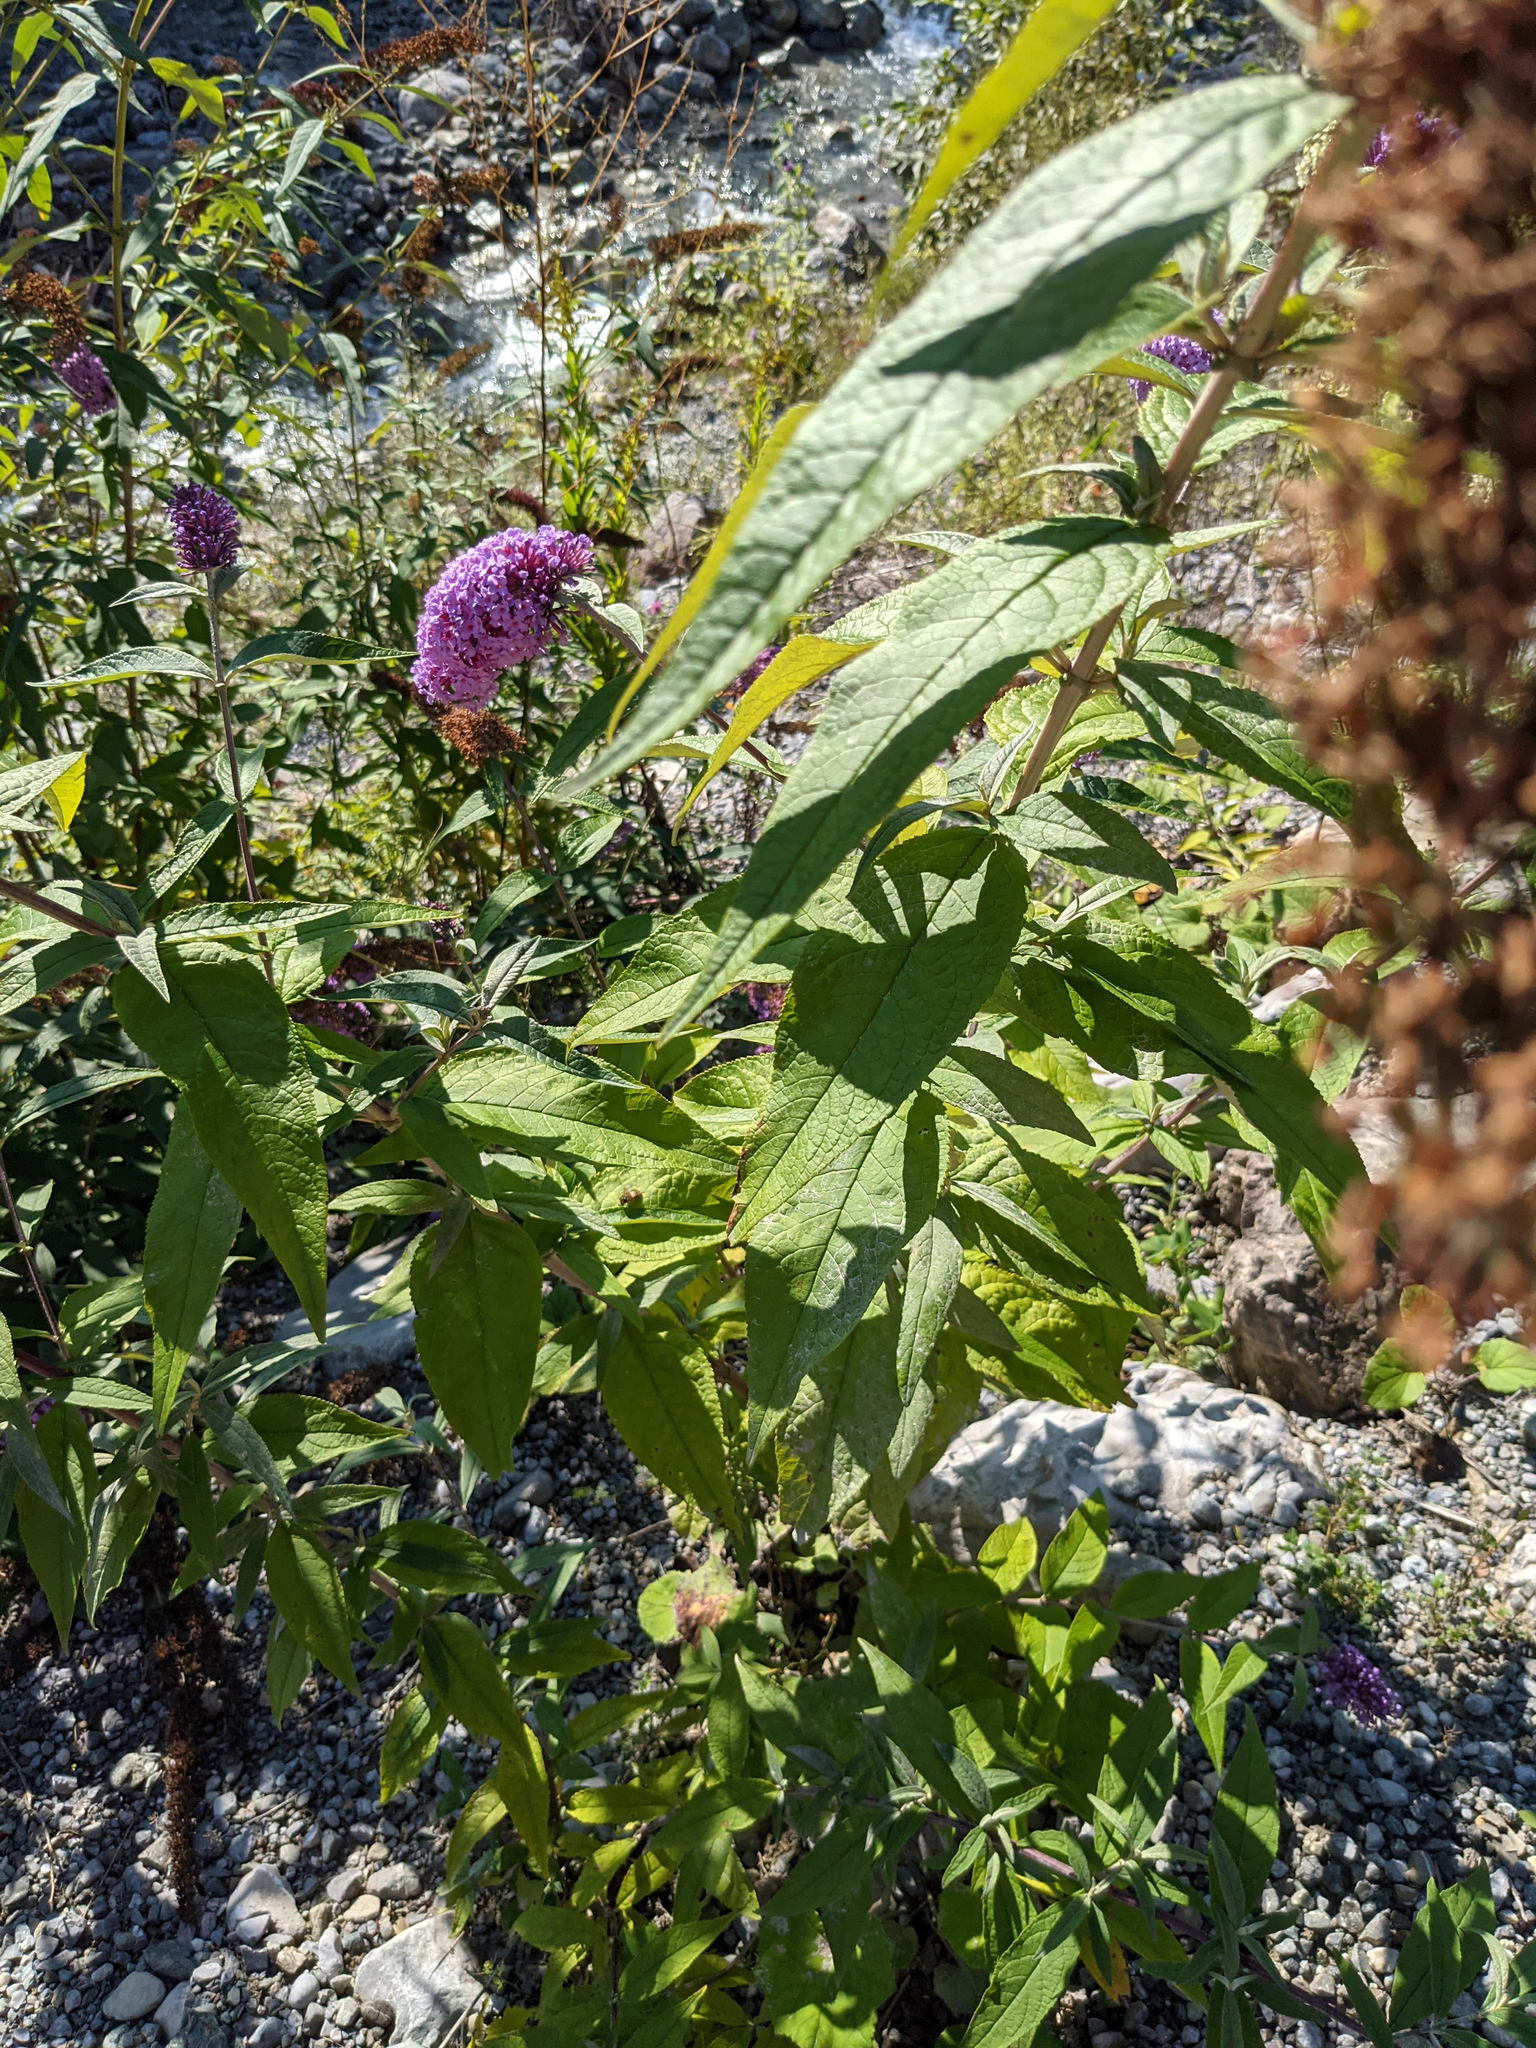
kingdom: Plantae
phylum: Tracheophyta
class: Magnoliopsida
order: Lamiales
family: Scrophulariaceae
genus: Buddleja
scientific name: Buddleja davidii
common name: Butterfly-bush
